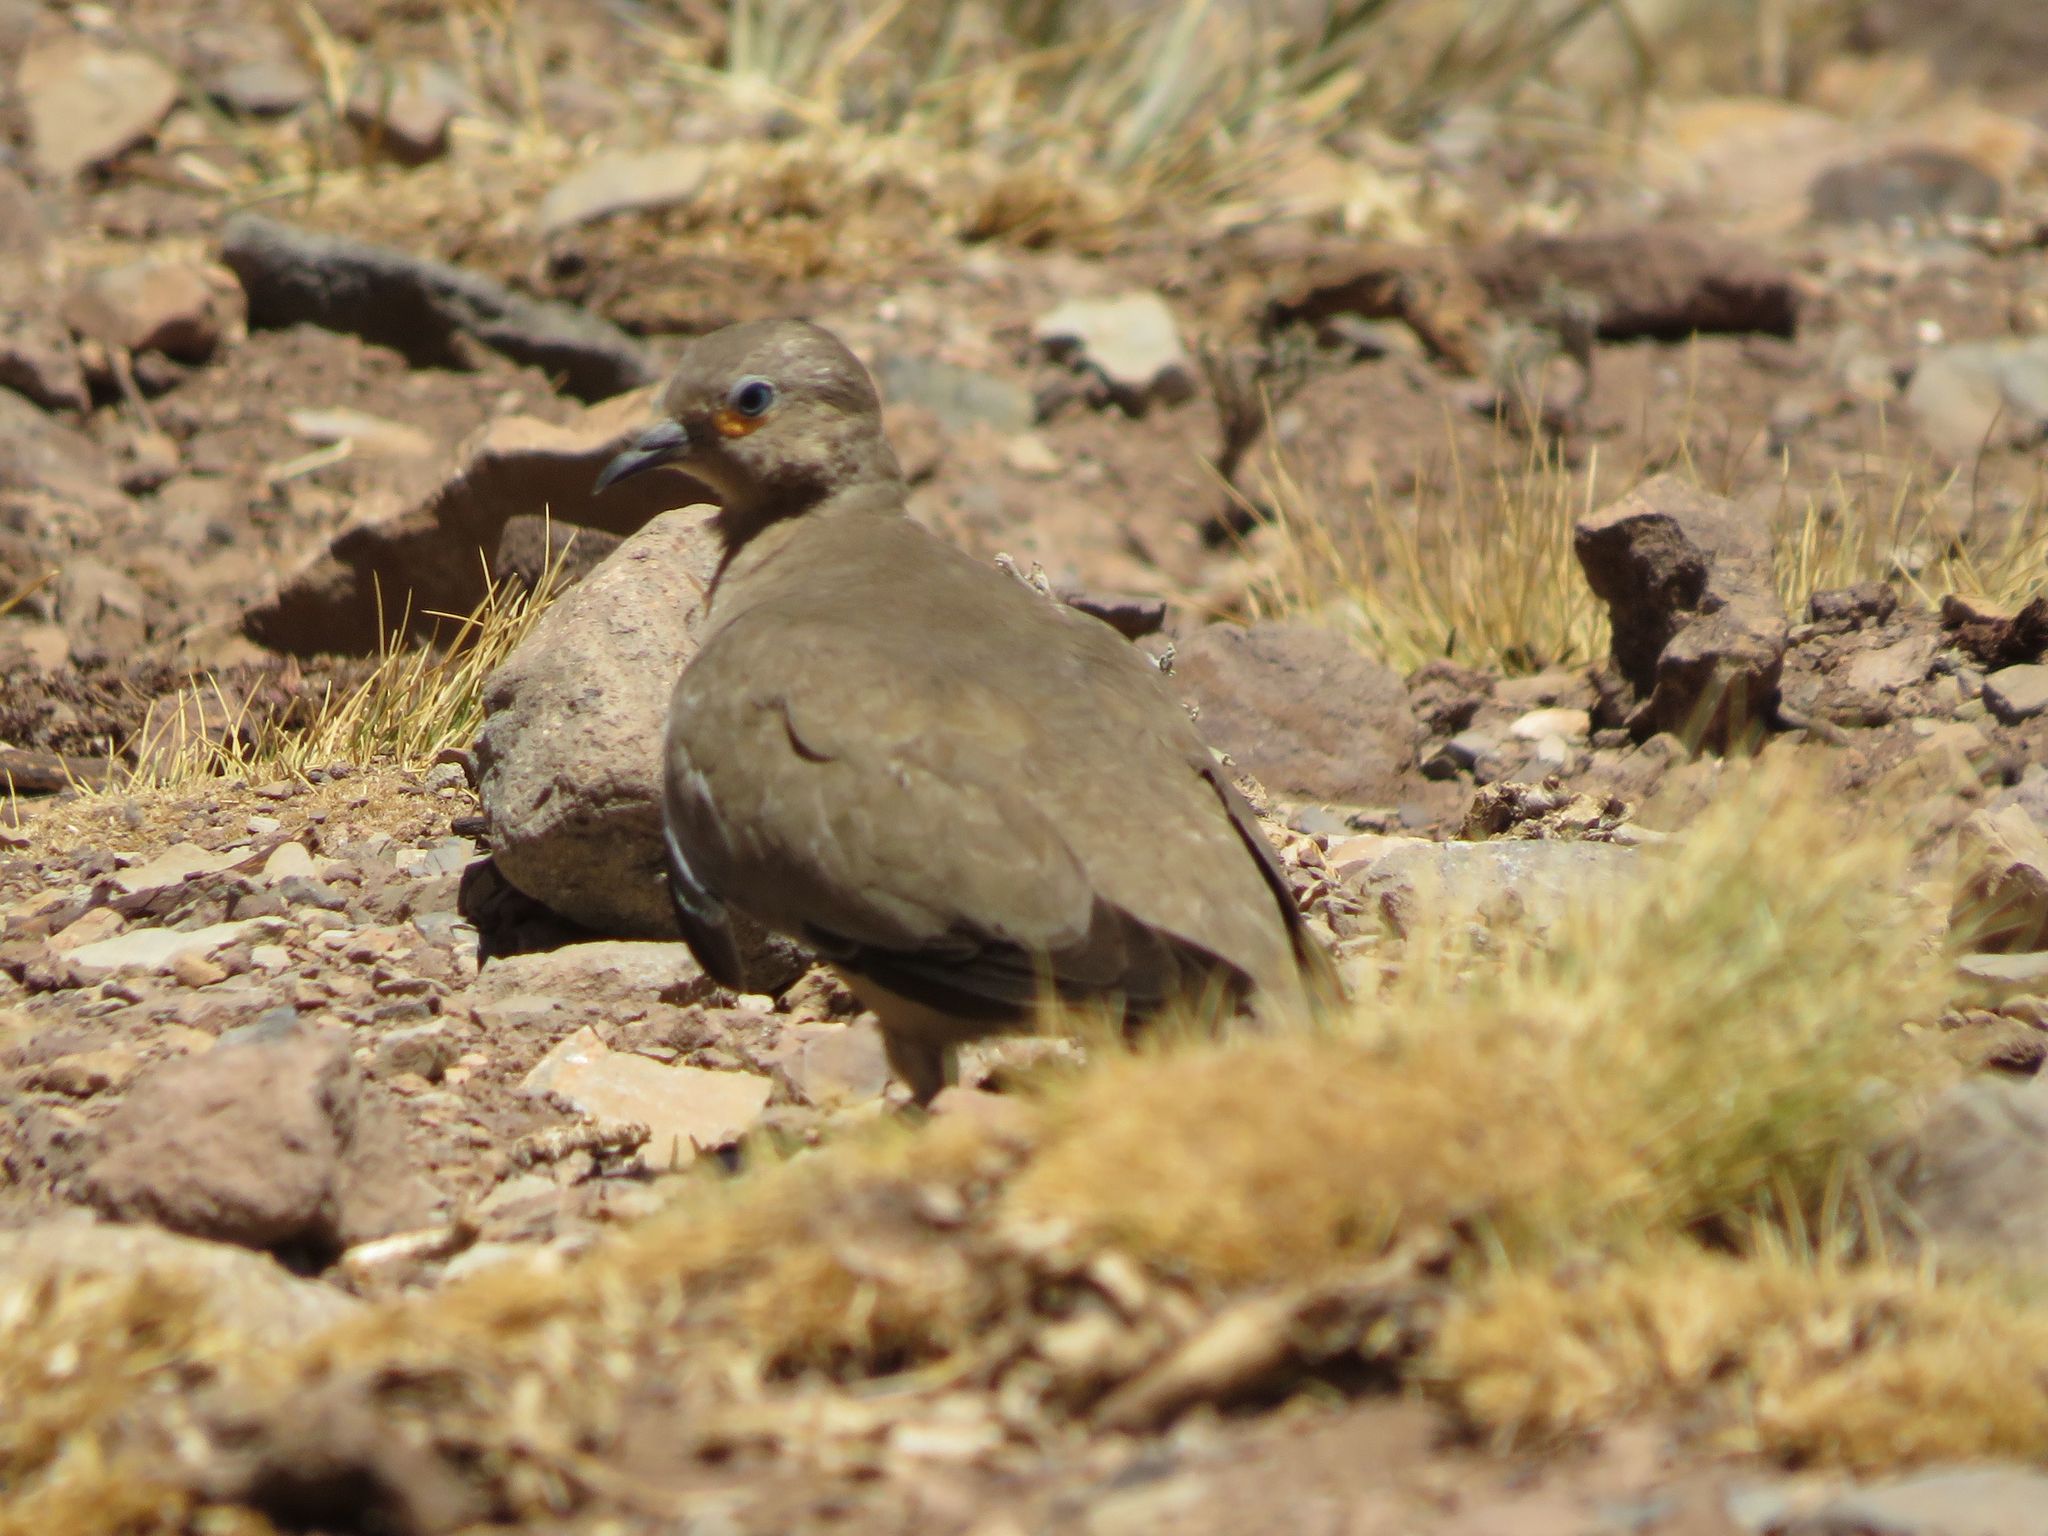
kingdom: Animalia
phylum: Chordata
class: Aves
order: Columbiformes
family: Columbidae
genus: Metriopelia
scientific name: Metriopelia melanoptera
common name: Black-winged ground dove
